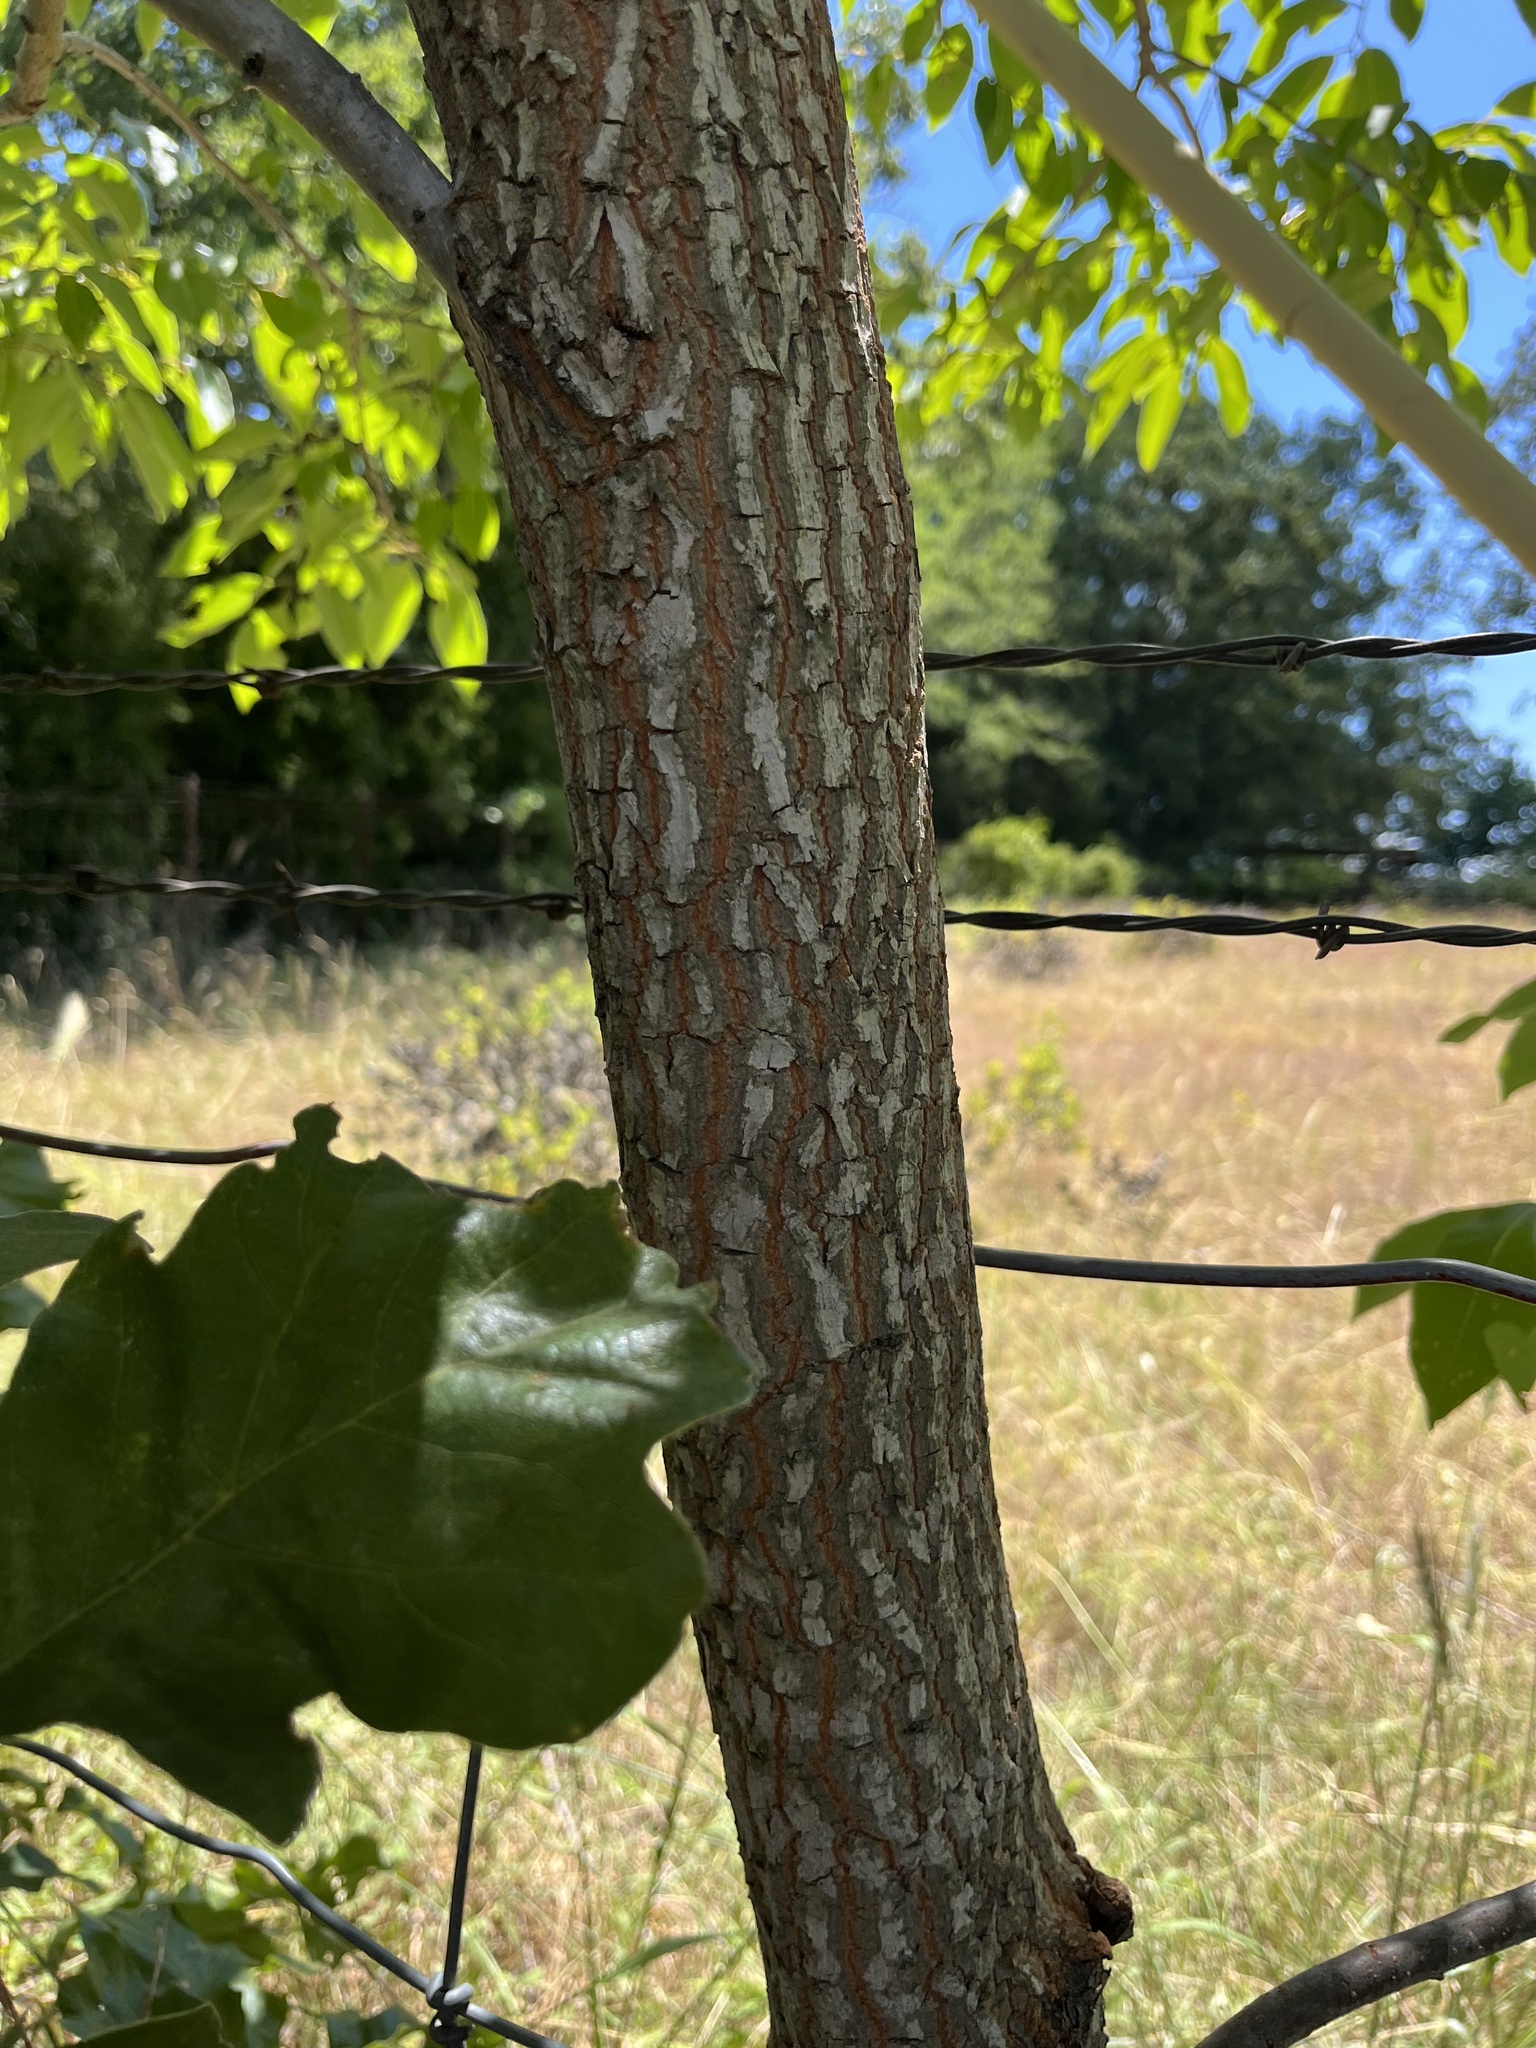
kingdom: Plantae
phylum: Tracheophyta
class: Magnoliopsida
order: Ericales
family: Ebenaceae
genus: Diospyros
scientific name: Diospyros virginiana
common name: Persimmon
